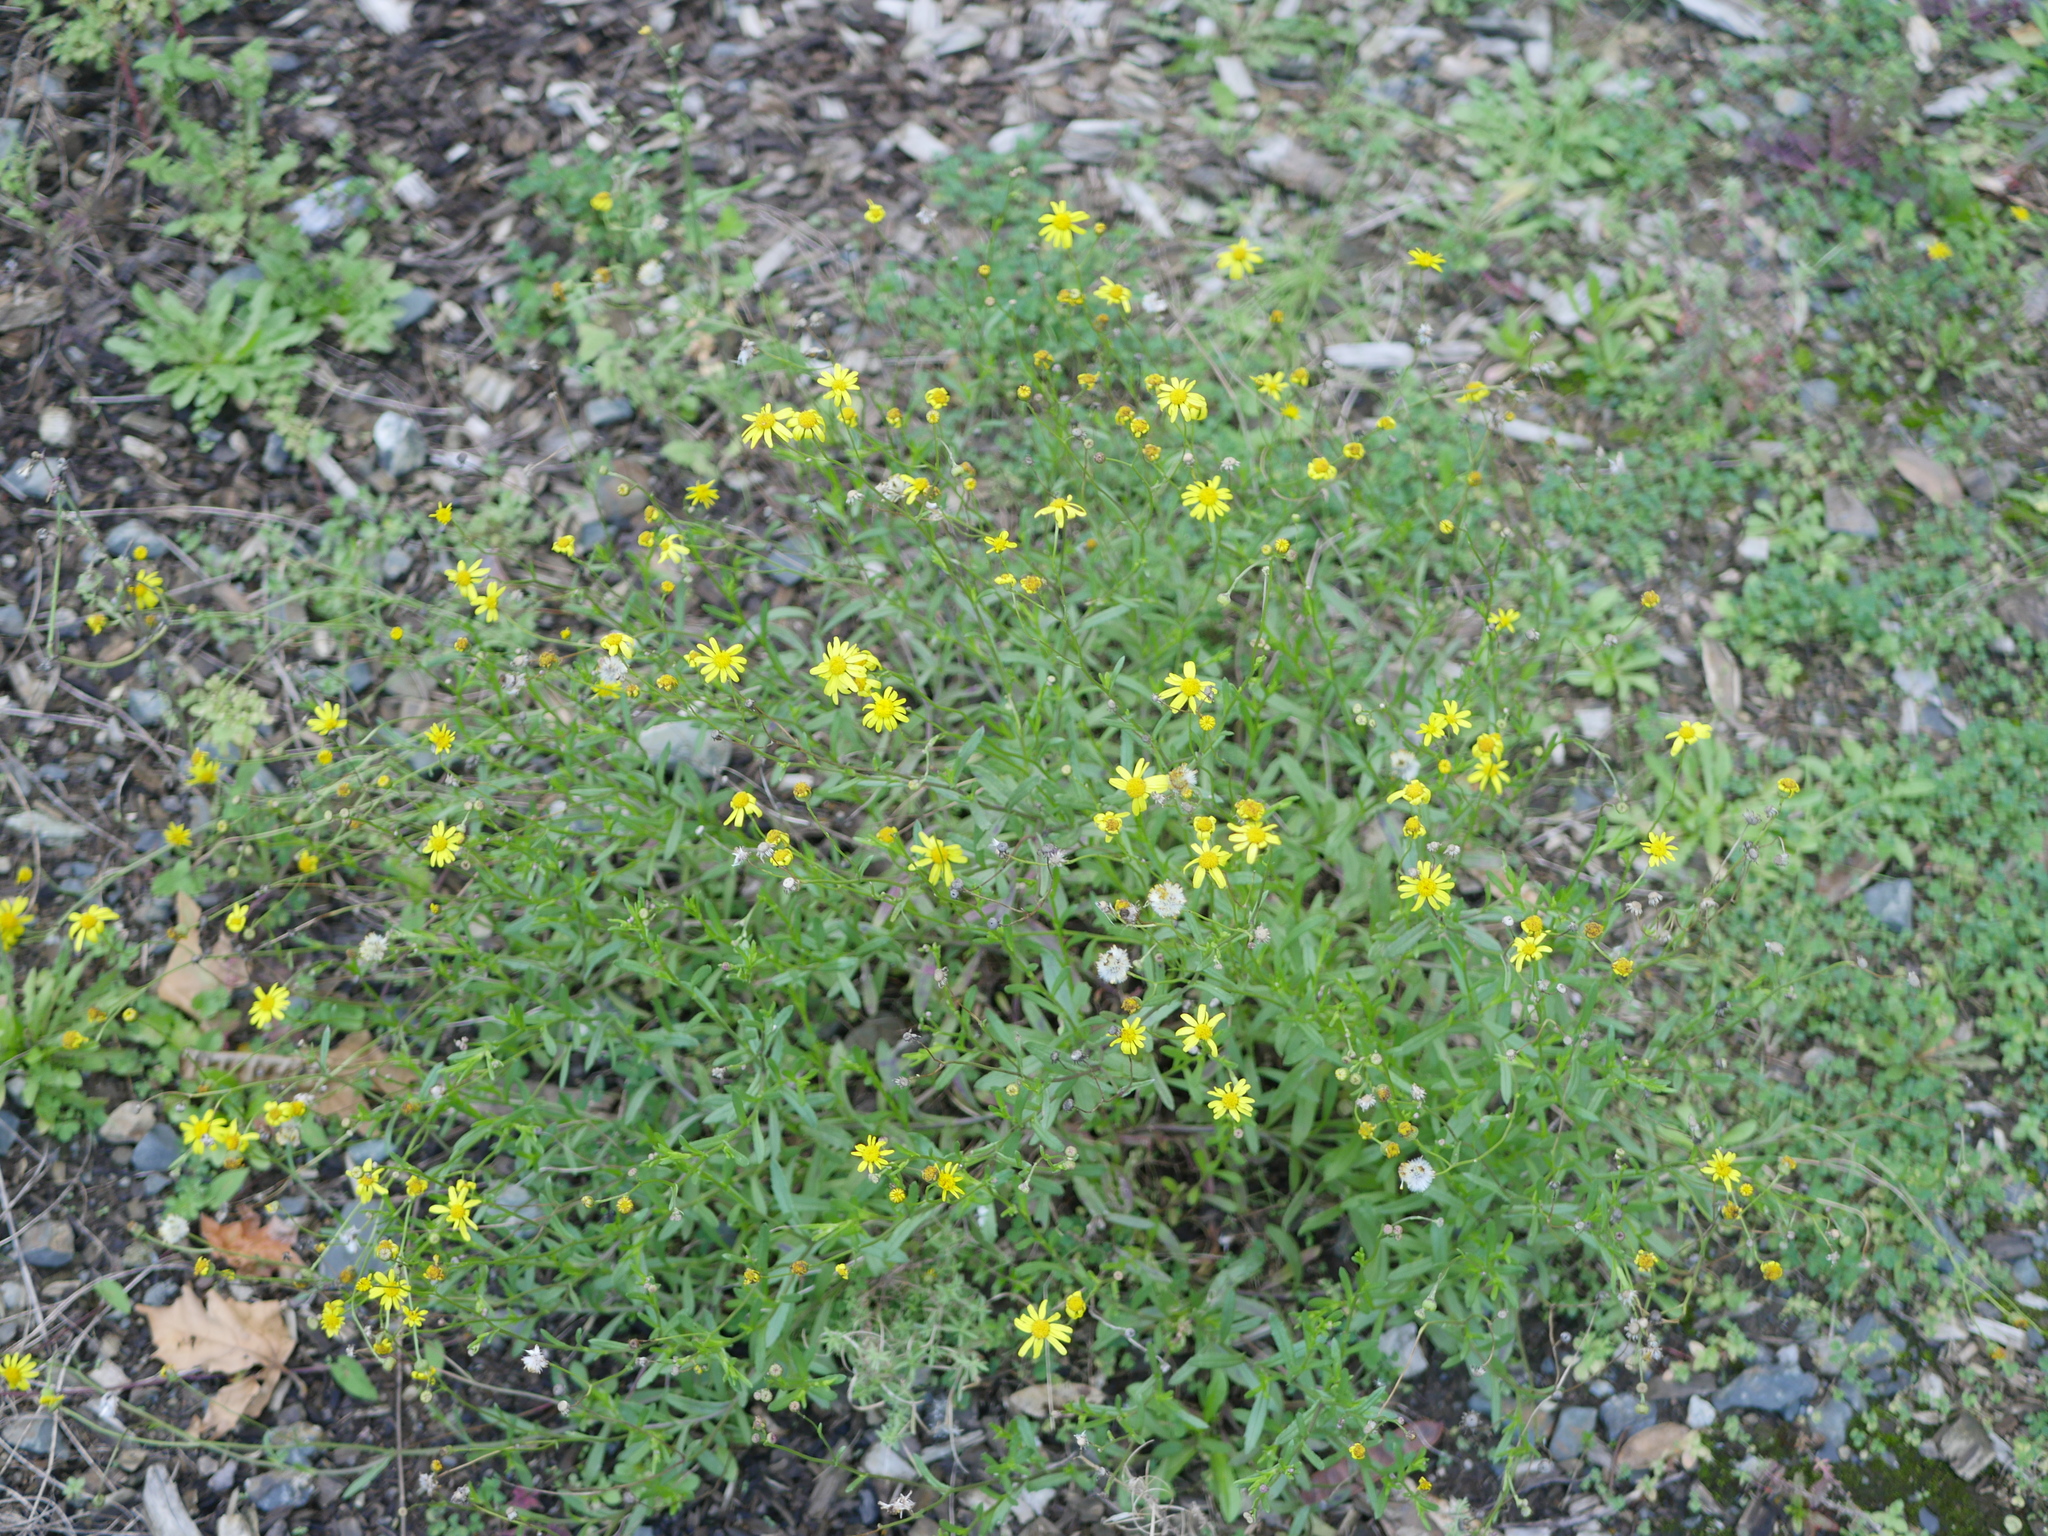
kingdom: Plantae
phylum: Tracheophyta
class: Magnoliopsida
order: Asterales
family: Asteraceae
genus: Senecio
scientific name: Senecio skirrhodon
